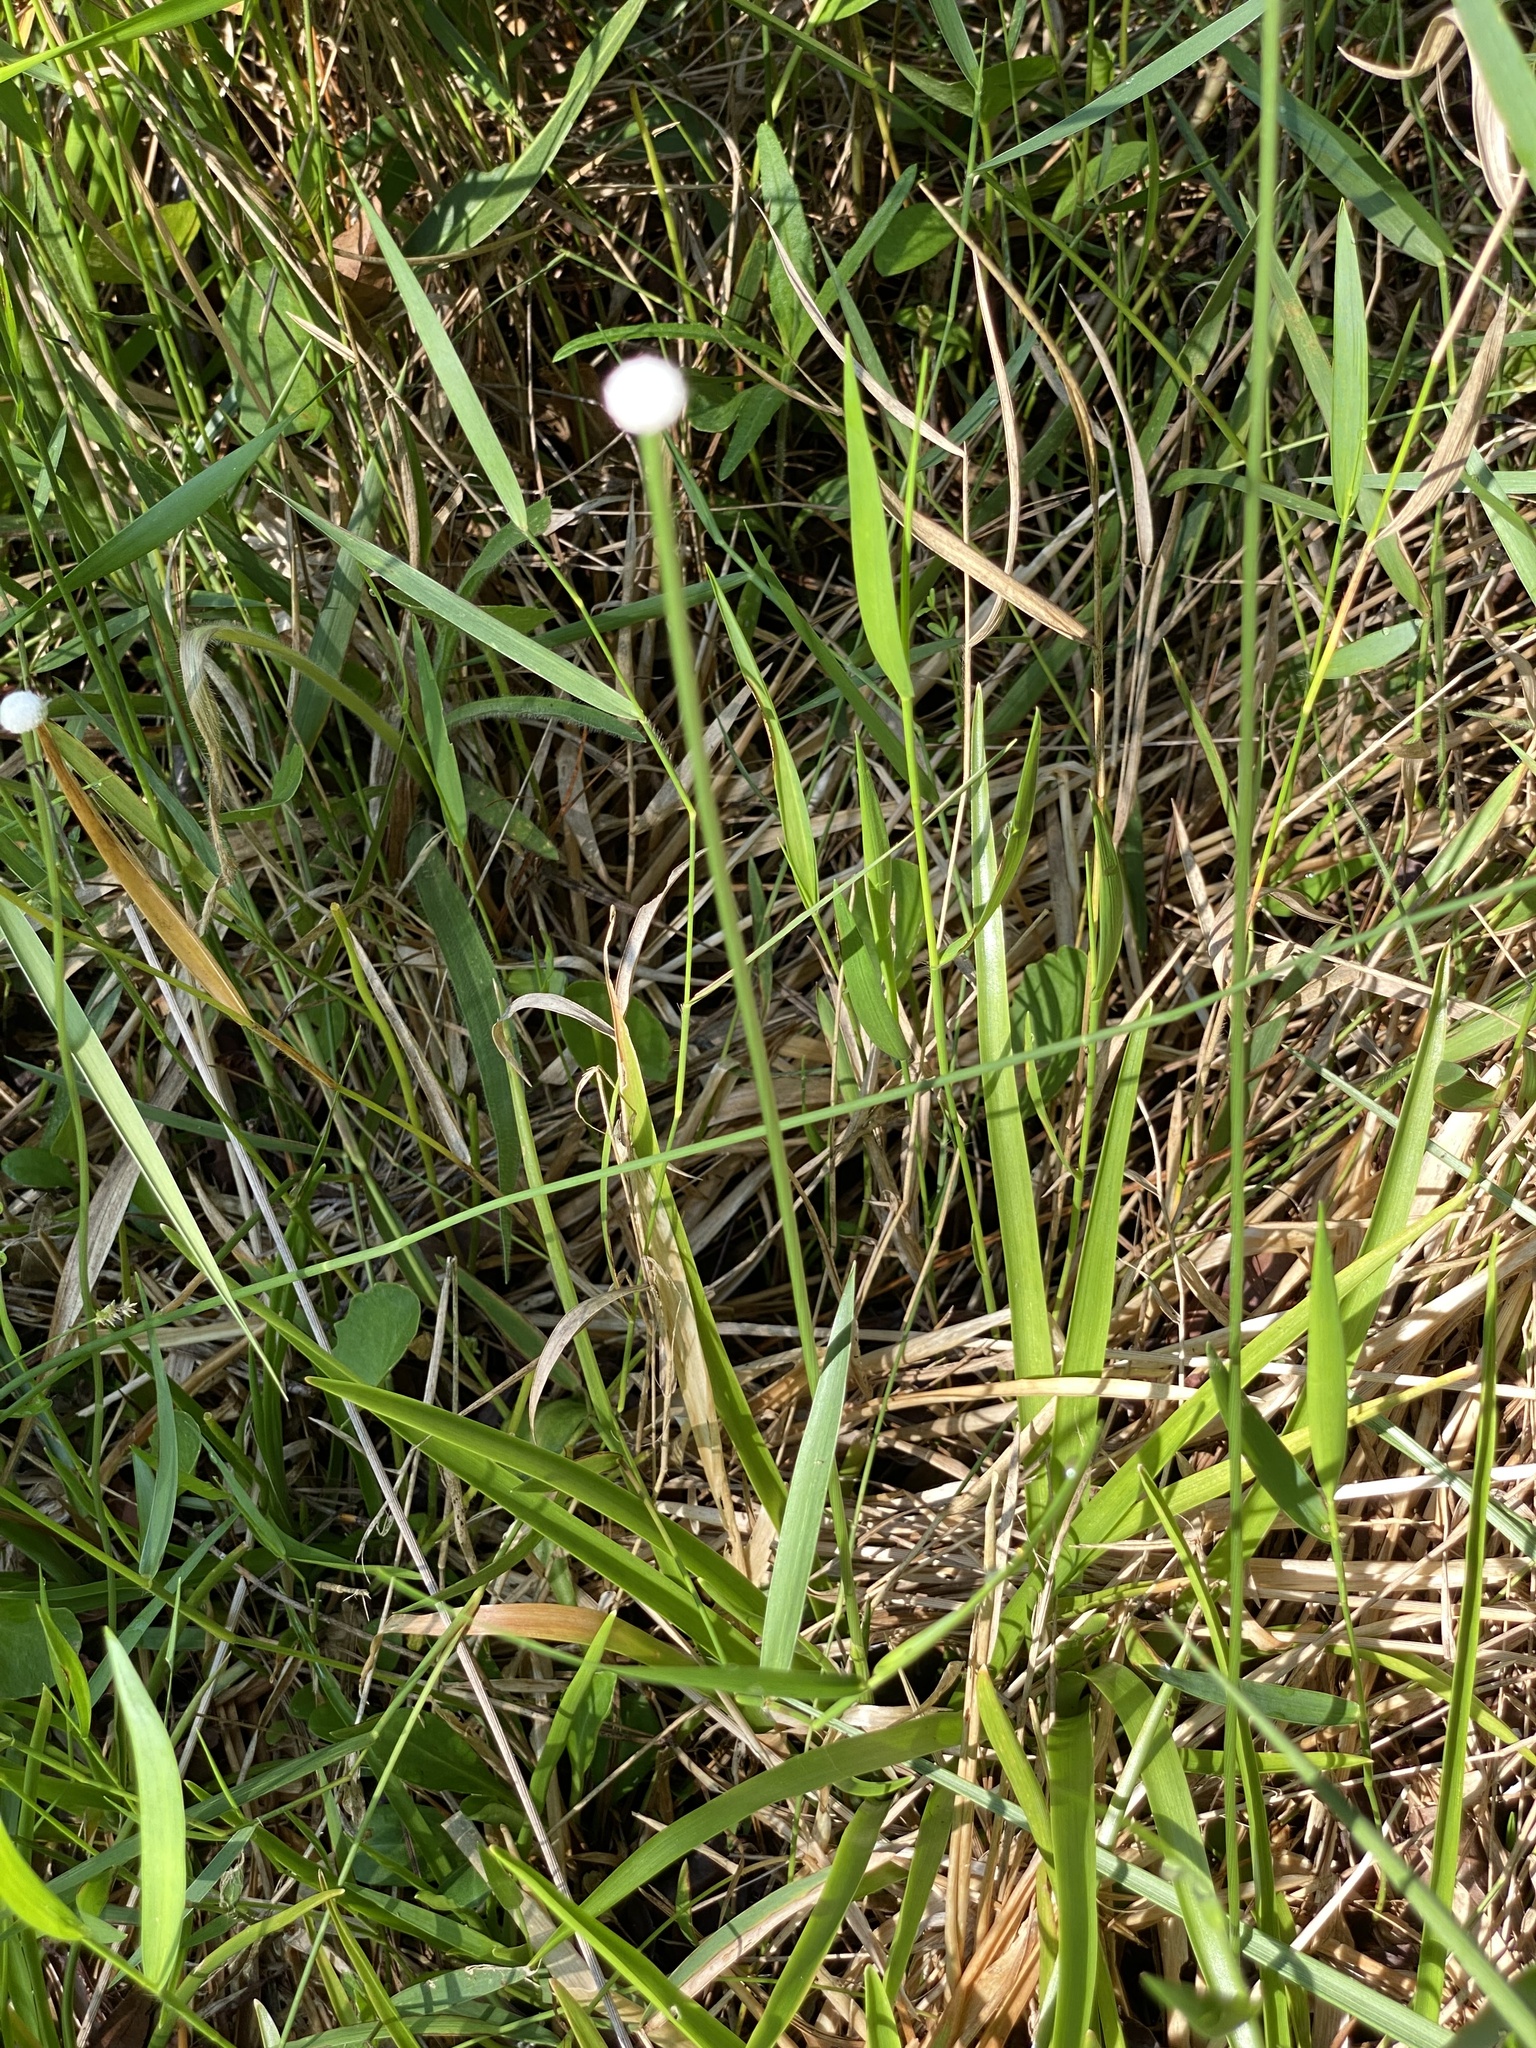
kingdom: Plantae
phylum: Tracheophyta
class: Liliopsida
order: Poales
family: Eriocaulaceae
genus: Eriocaulon
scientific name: Eriocaulon decangulare
